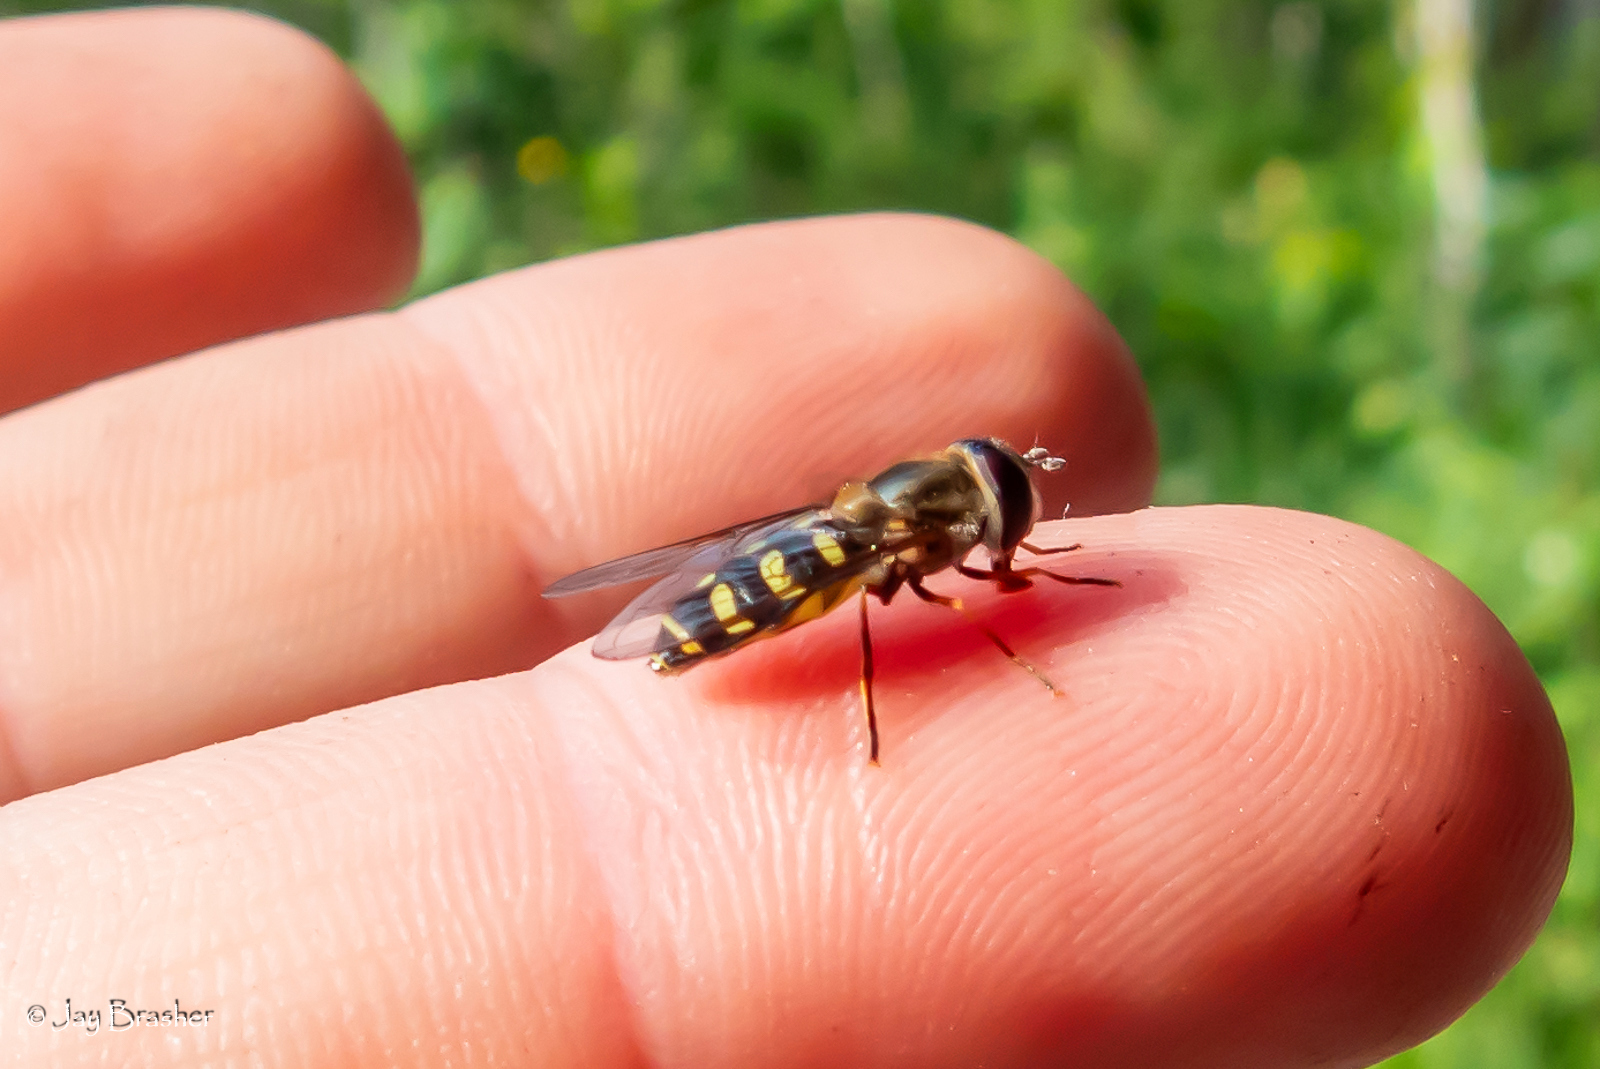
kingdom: Animalia
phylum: Arthropoda
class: Insecta
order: Diptera
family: Syrphidae
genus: Lapposyrphus
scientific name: Lapposyrphus lapponicus
